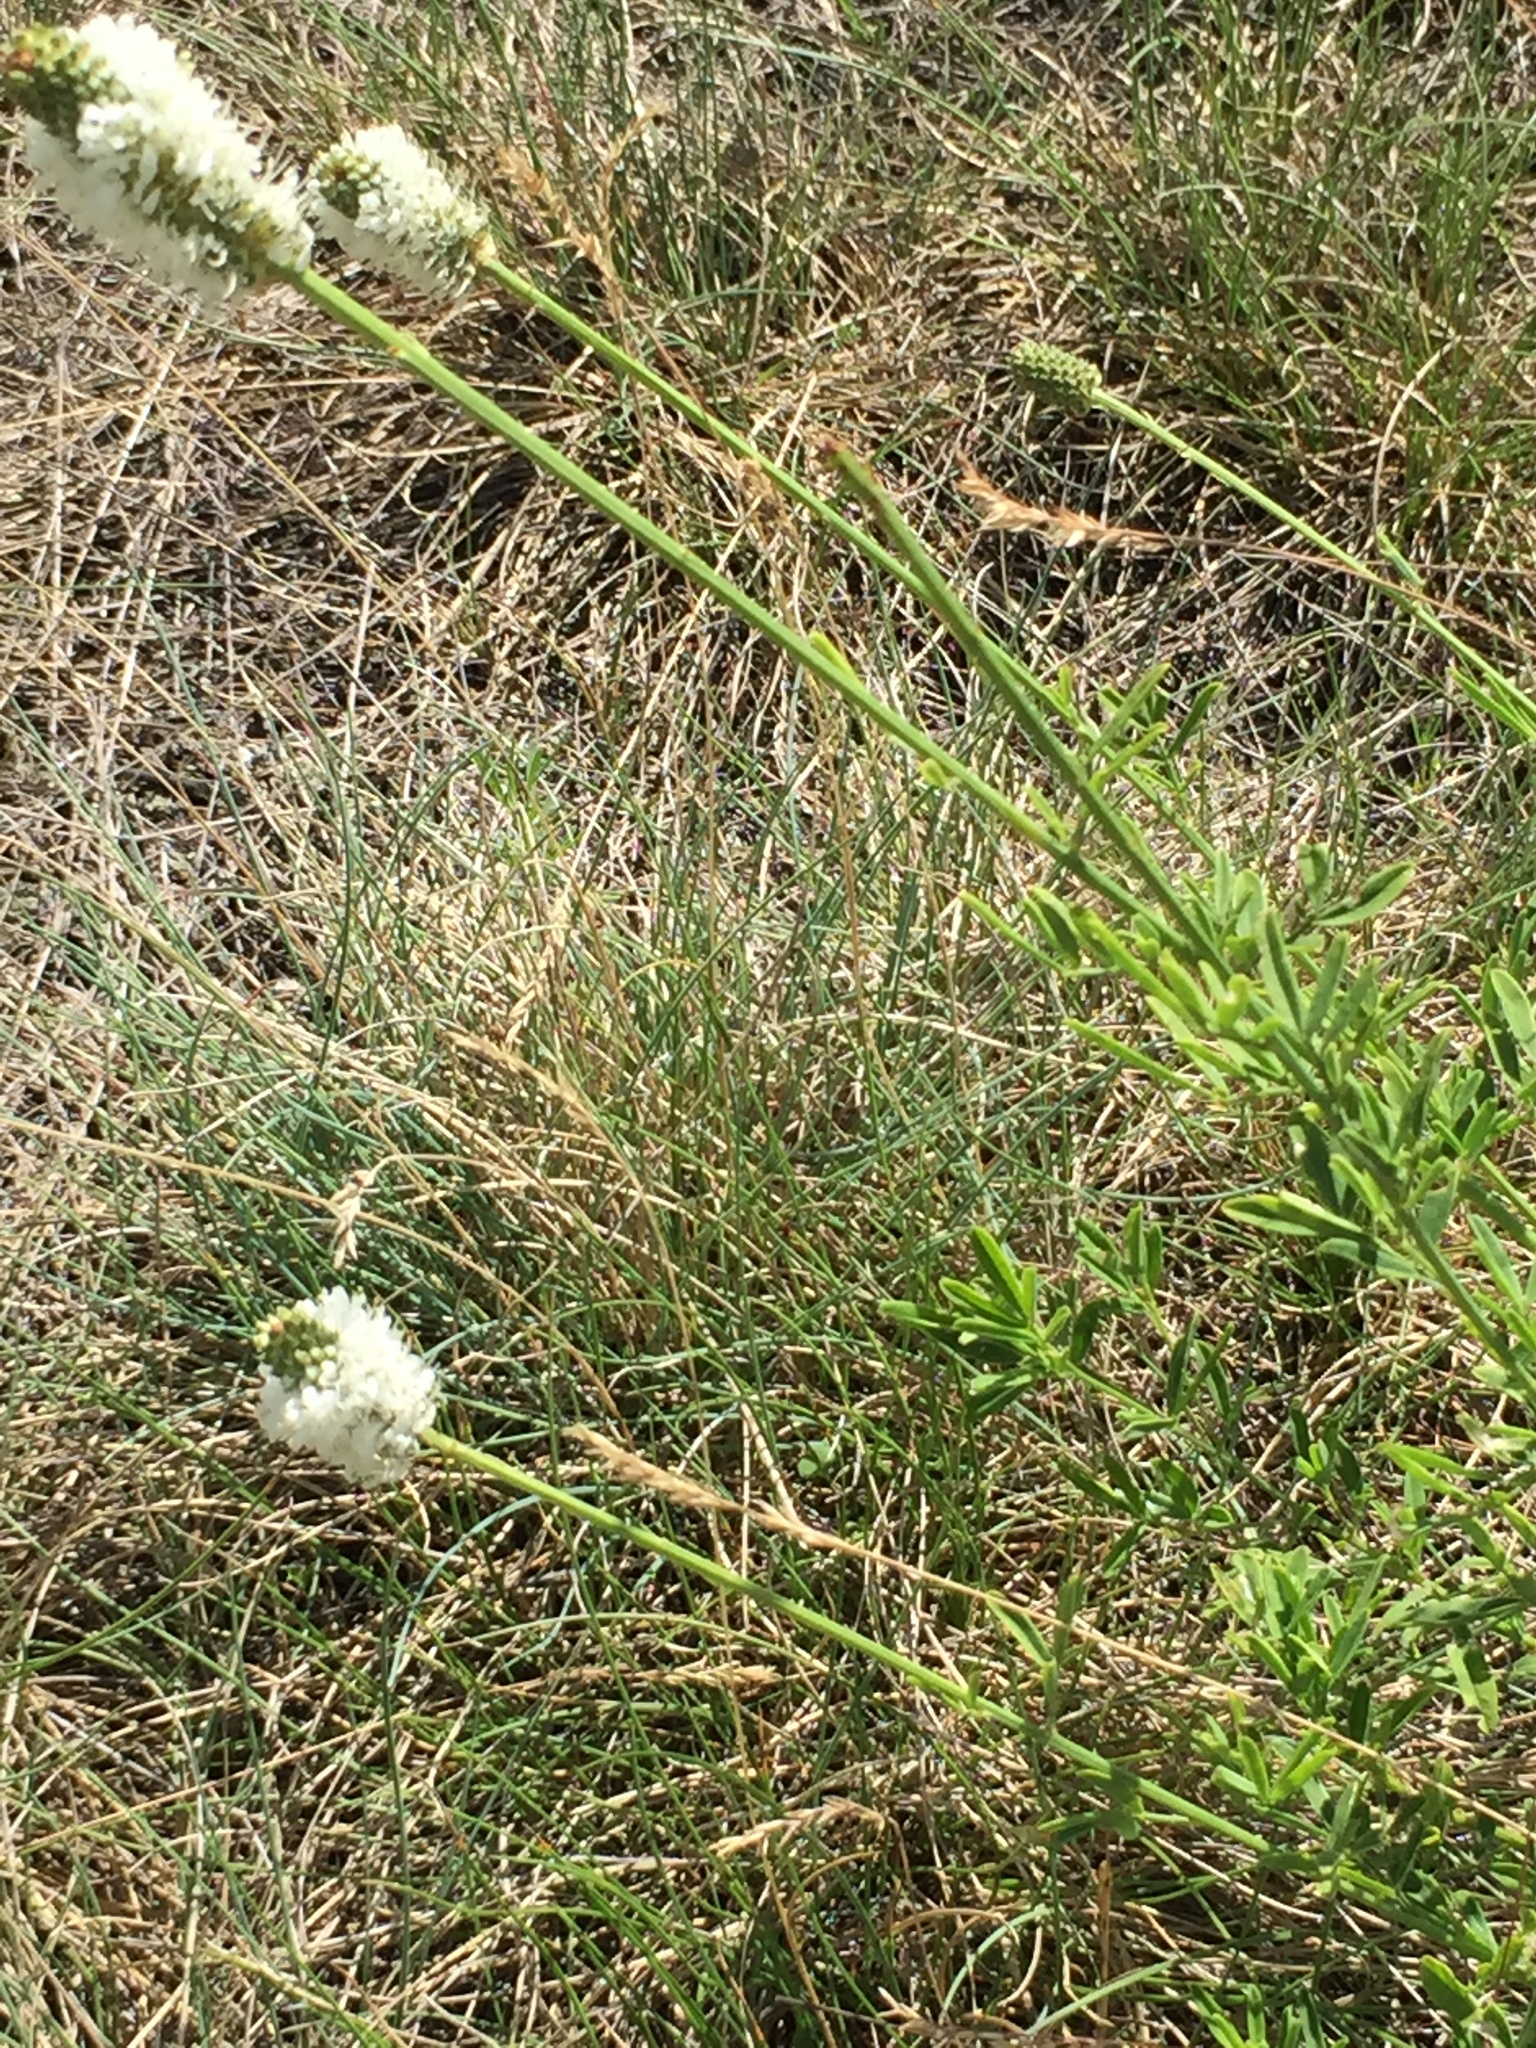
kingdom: Plantae
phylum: Tracheophyta
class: Magnoliopsida
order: Fabales
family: Fabaceae
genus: Dalea
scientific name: Dalea candida
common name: White prairie-clover
